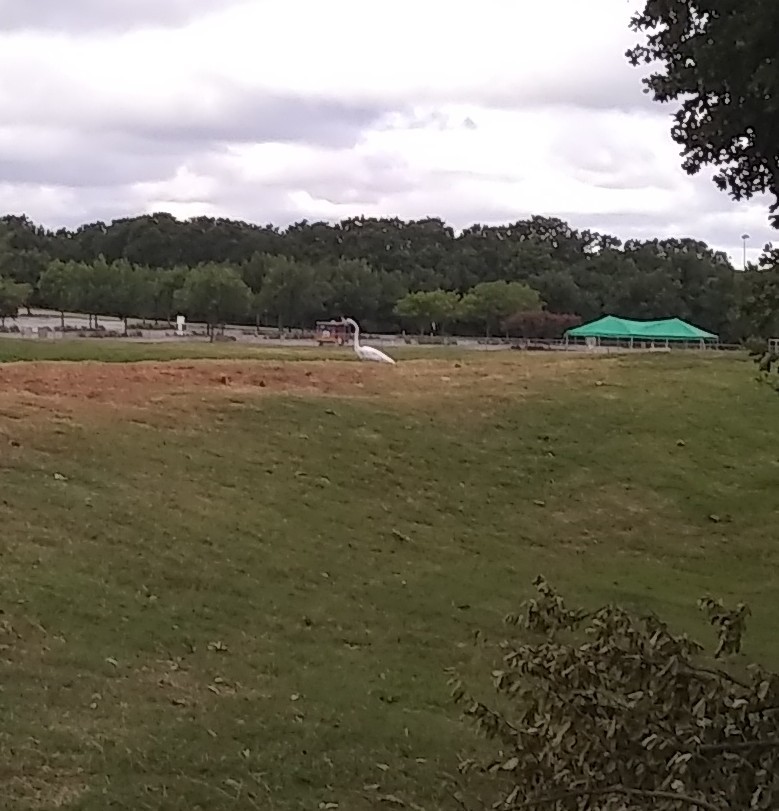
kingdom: Animalia
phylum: Chordata
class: Aves
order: Pelecaniformes
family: Ardeidae
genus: Ardea
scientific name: Ardea alba
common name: Great egret
